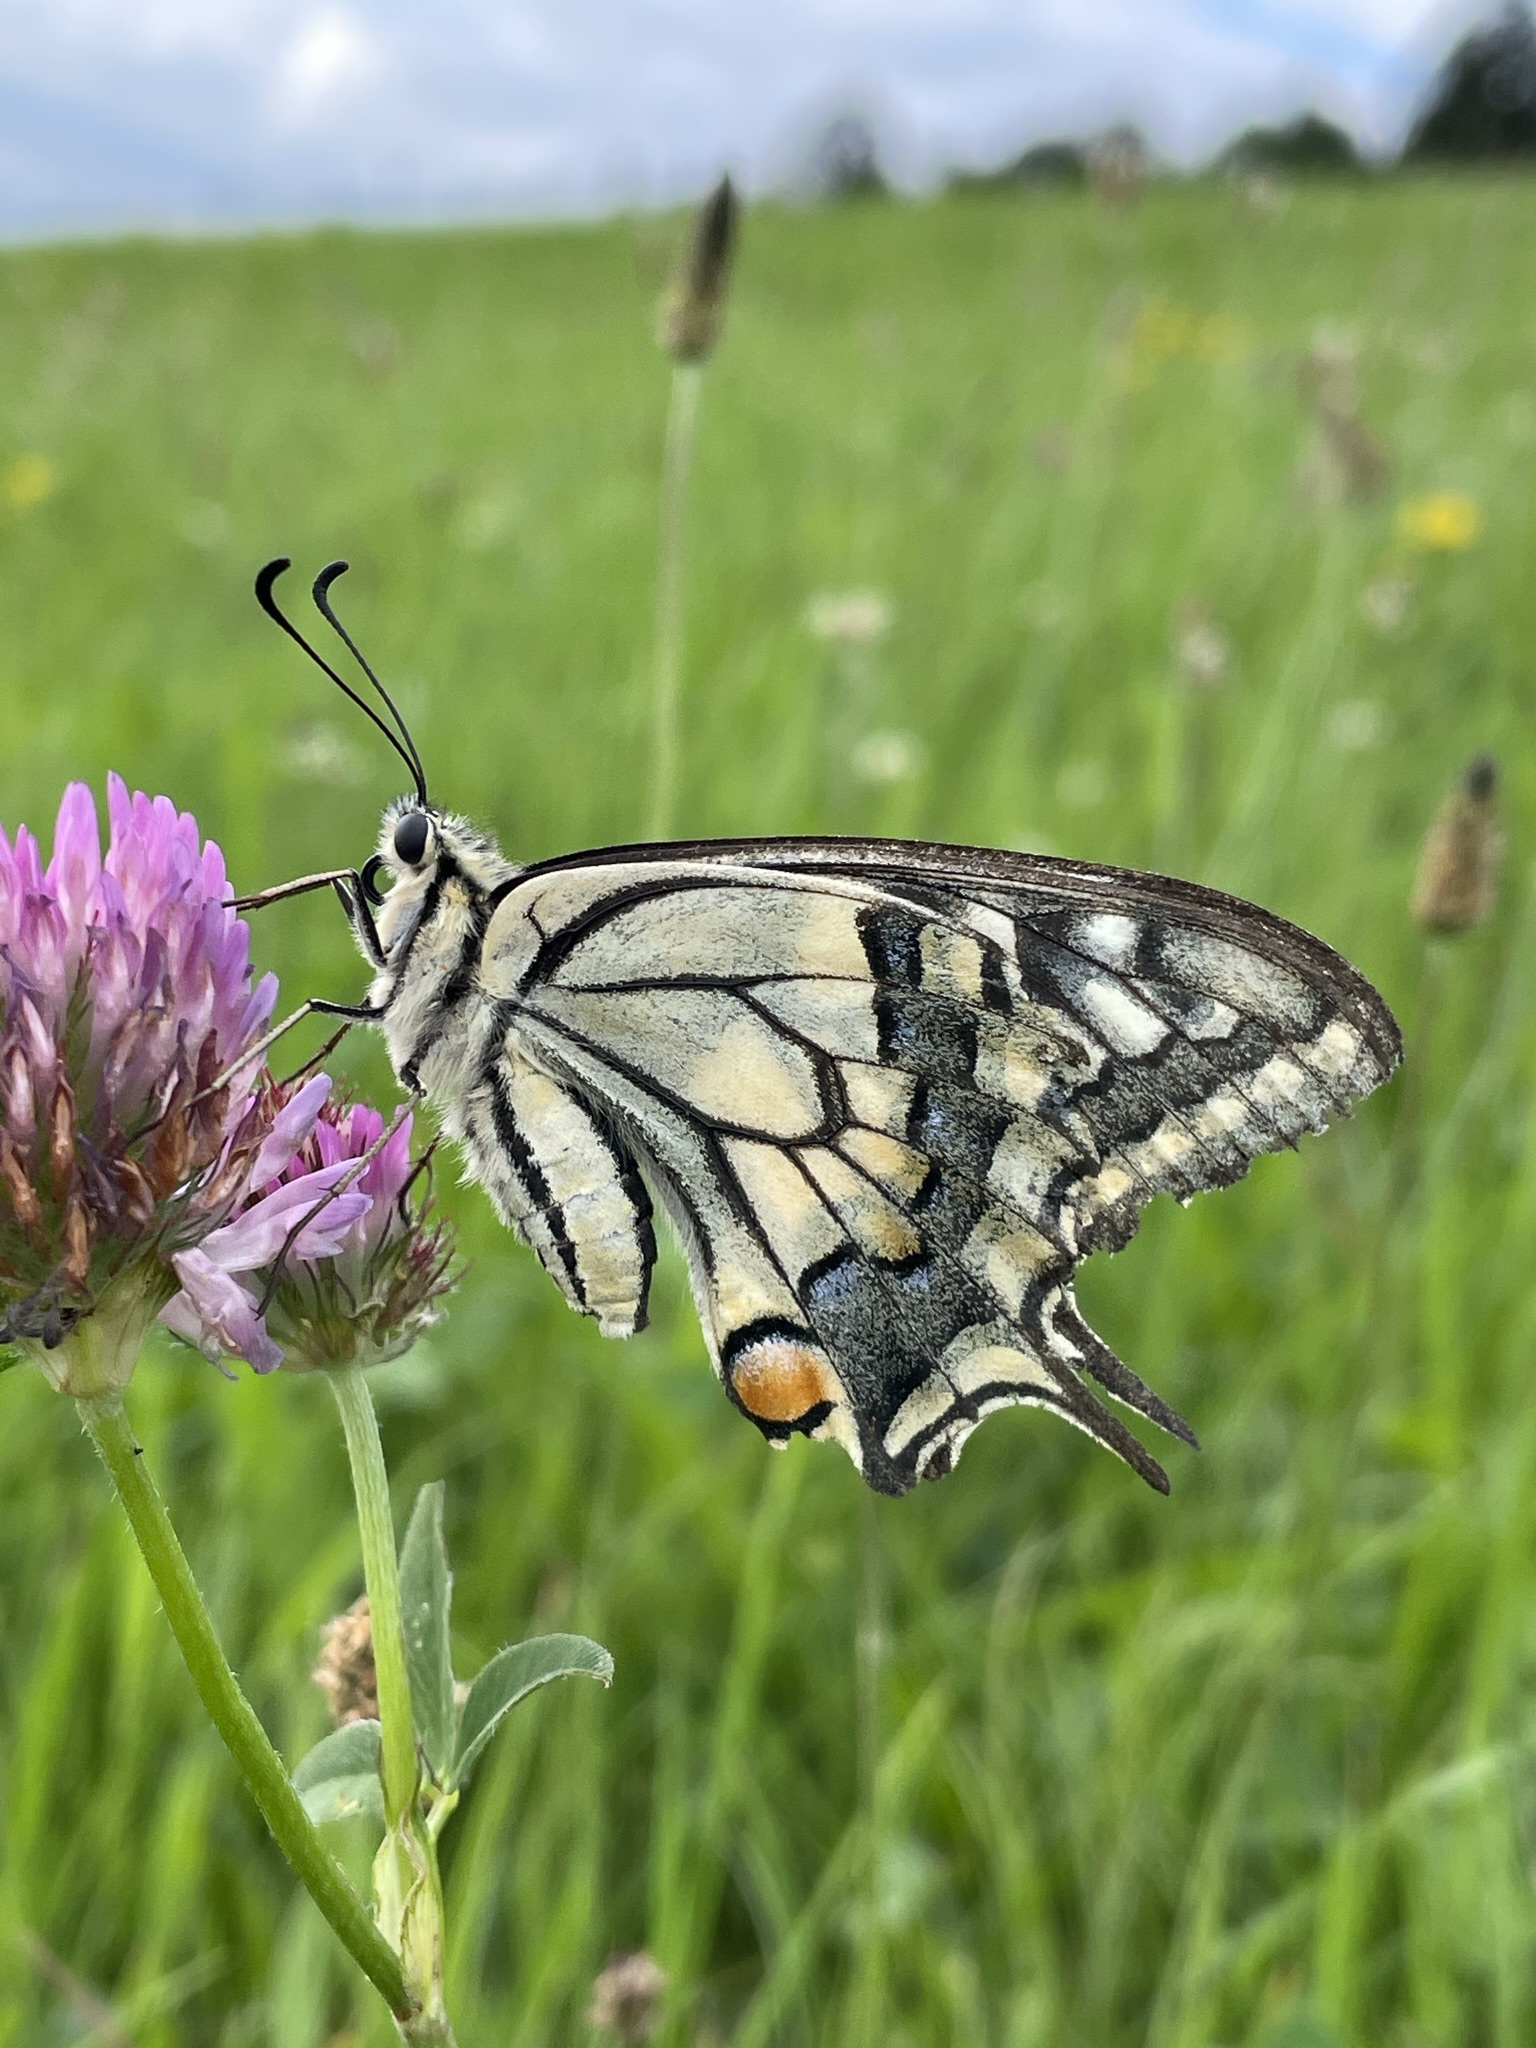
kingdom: Animalia
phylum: Arthropoda
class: Insecta
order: Lepidoptera
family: Papilionidae
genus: Papilio
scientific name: Papilio machaon
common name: Swallowtail
